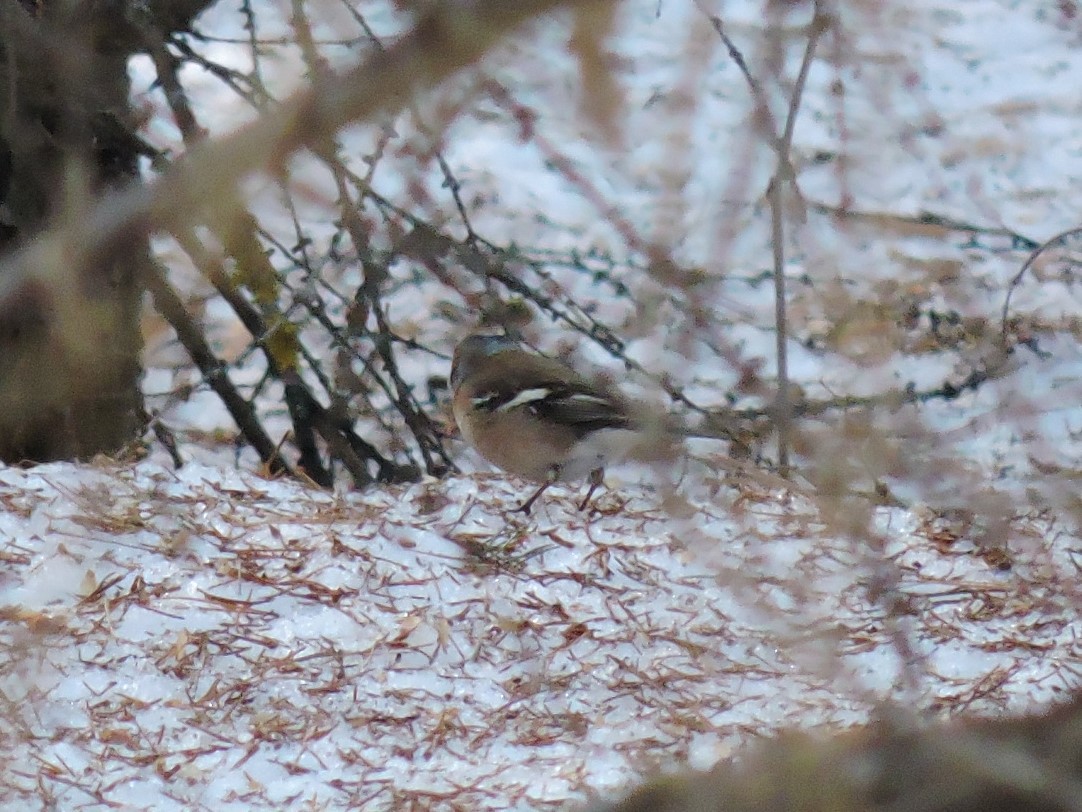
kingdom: Animalia
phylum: Chordata
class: Aves
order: Passeriformes
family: Fringillidae
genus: Fringilla
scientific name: Fringilla coelebs
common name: Common chaffinch
